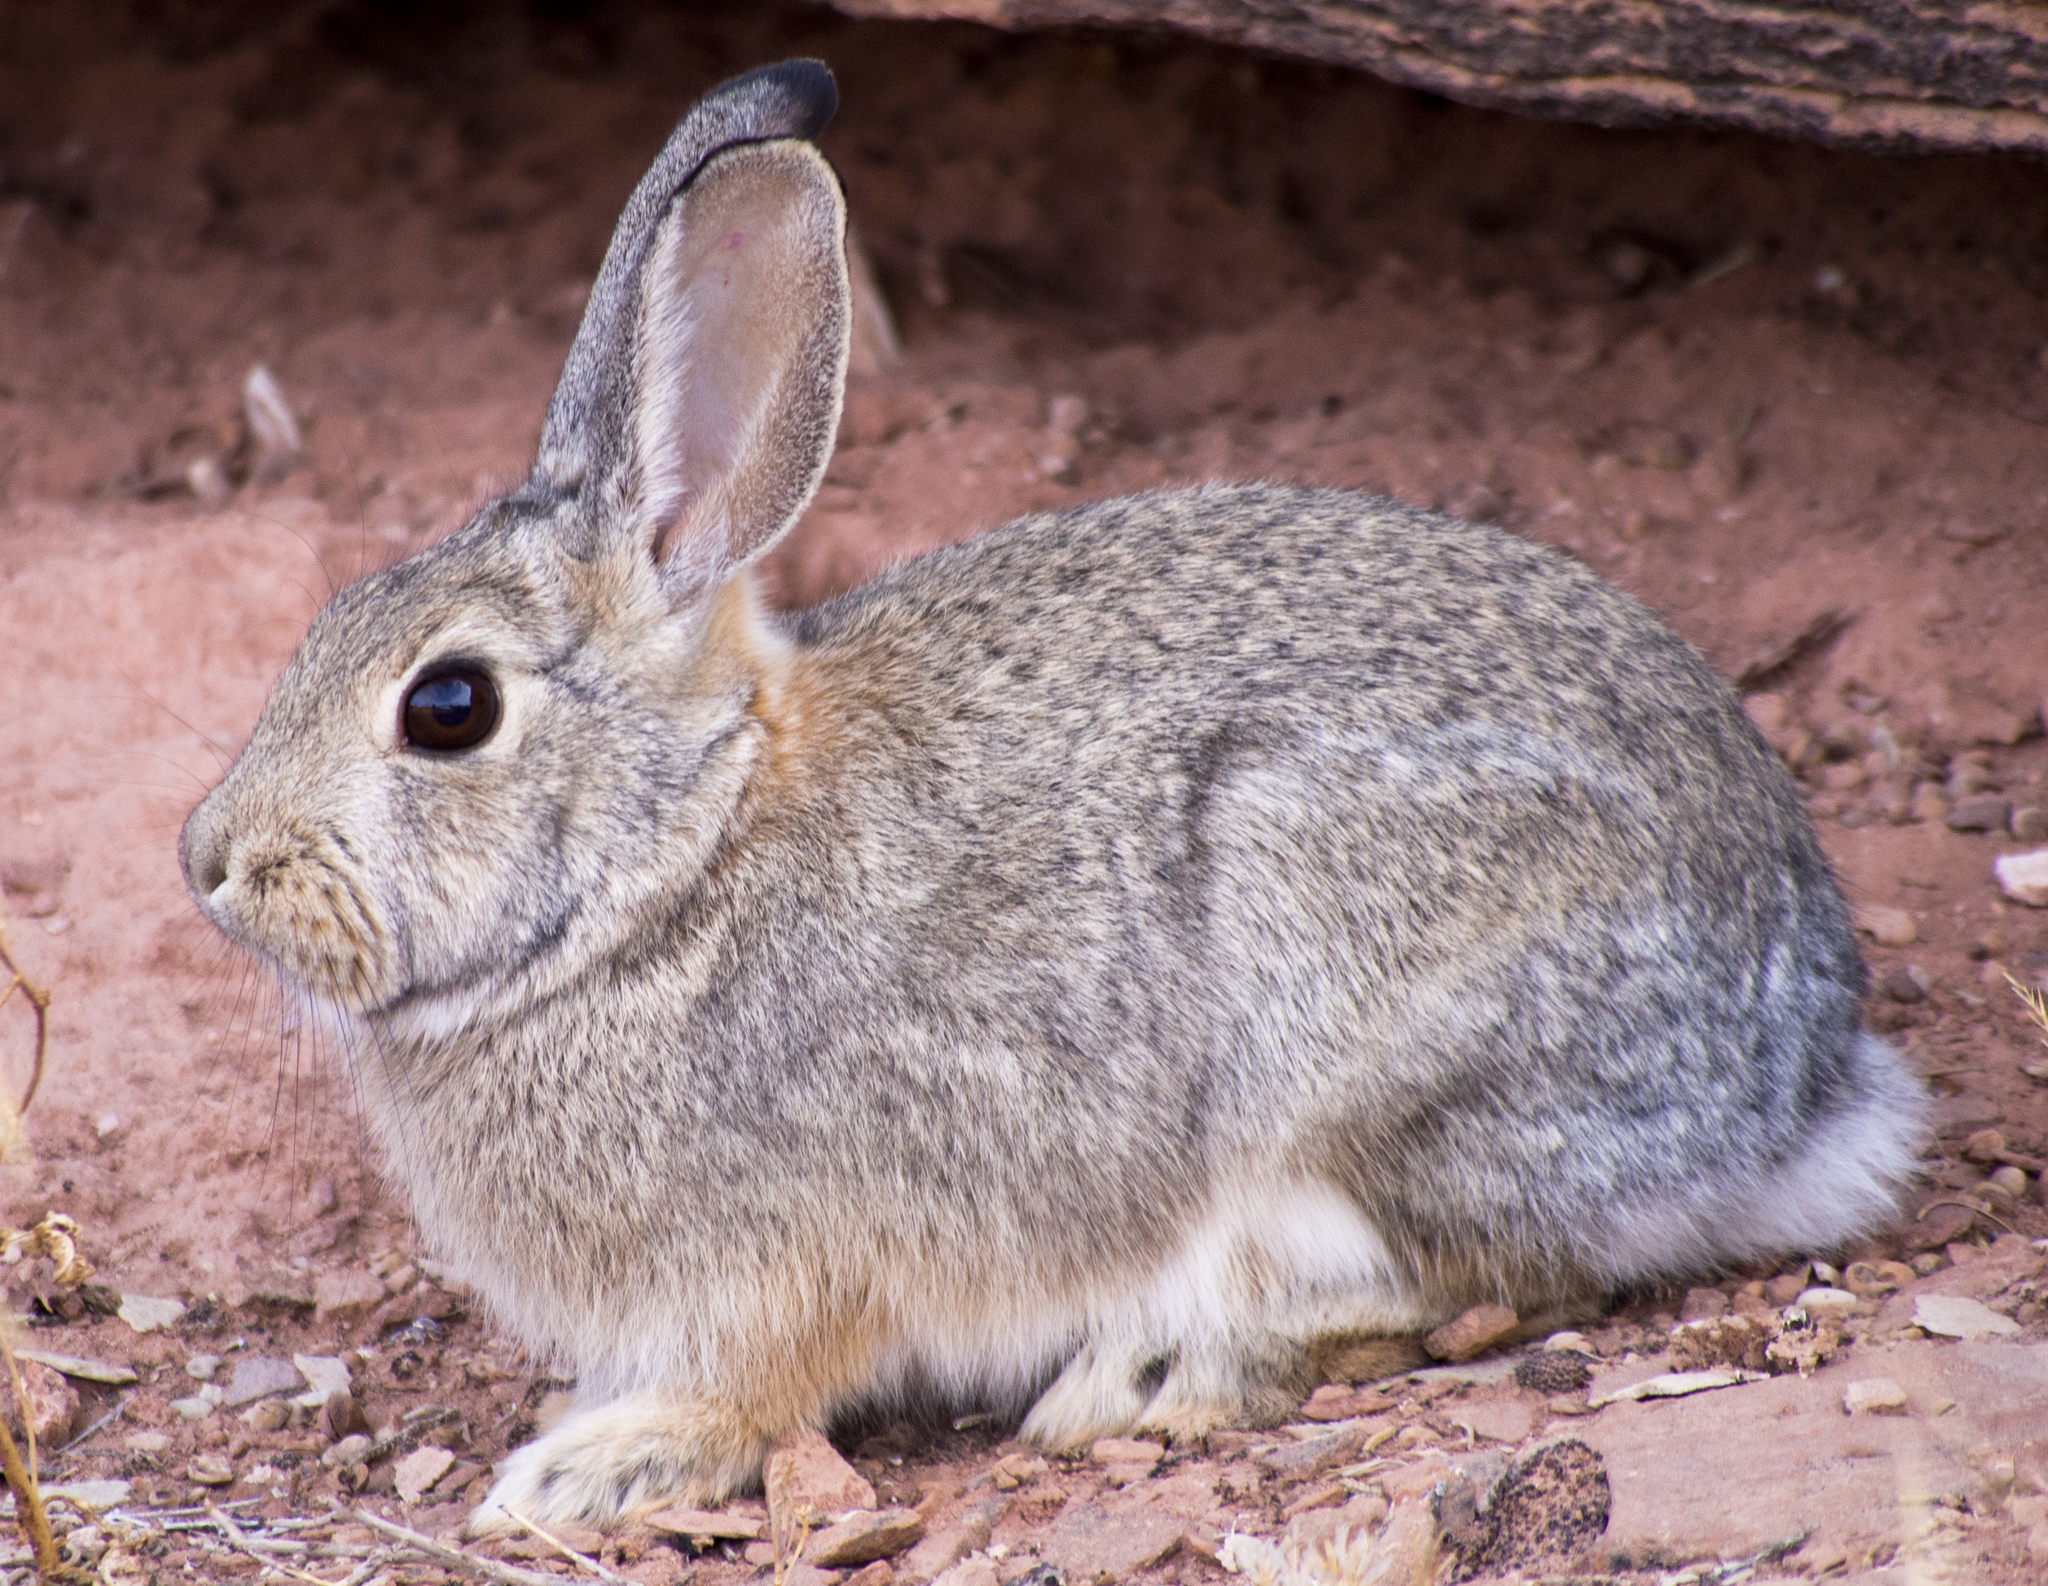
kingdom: Animalia
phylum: Chordata
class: Mammalia
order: Lagomorpha
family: Leporidae
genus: Sylvilagus
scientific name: Sylvilagus audubonii
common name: Desert cottontail
